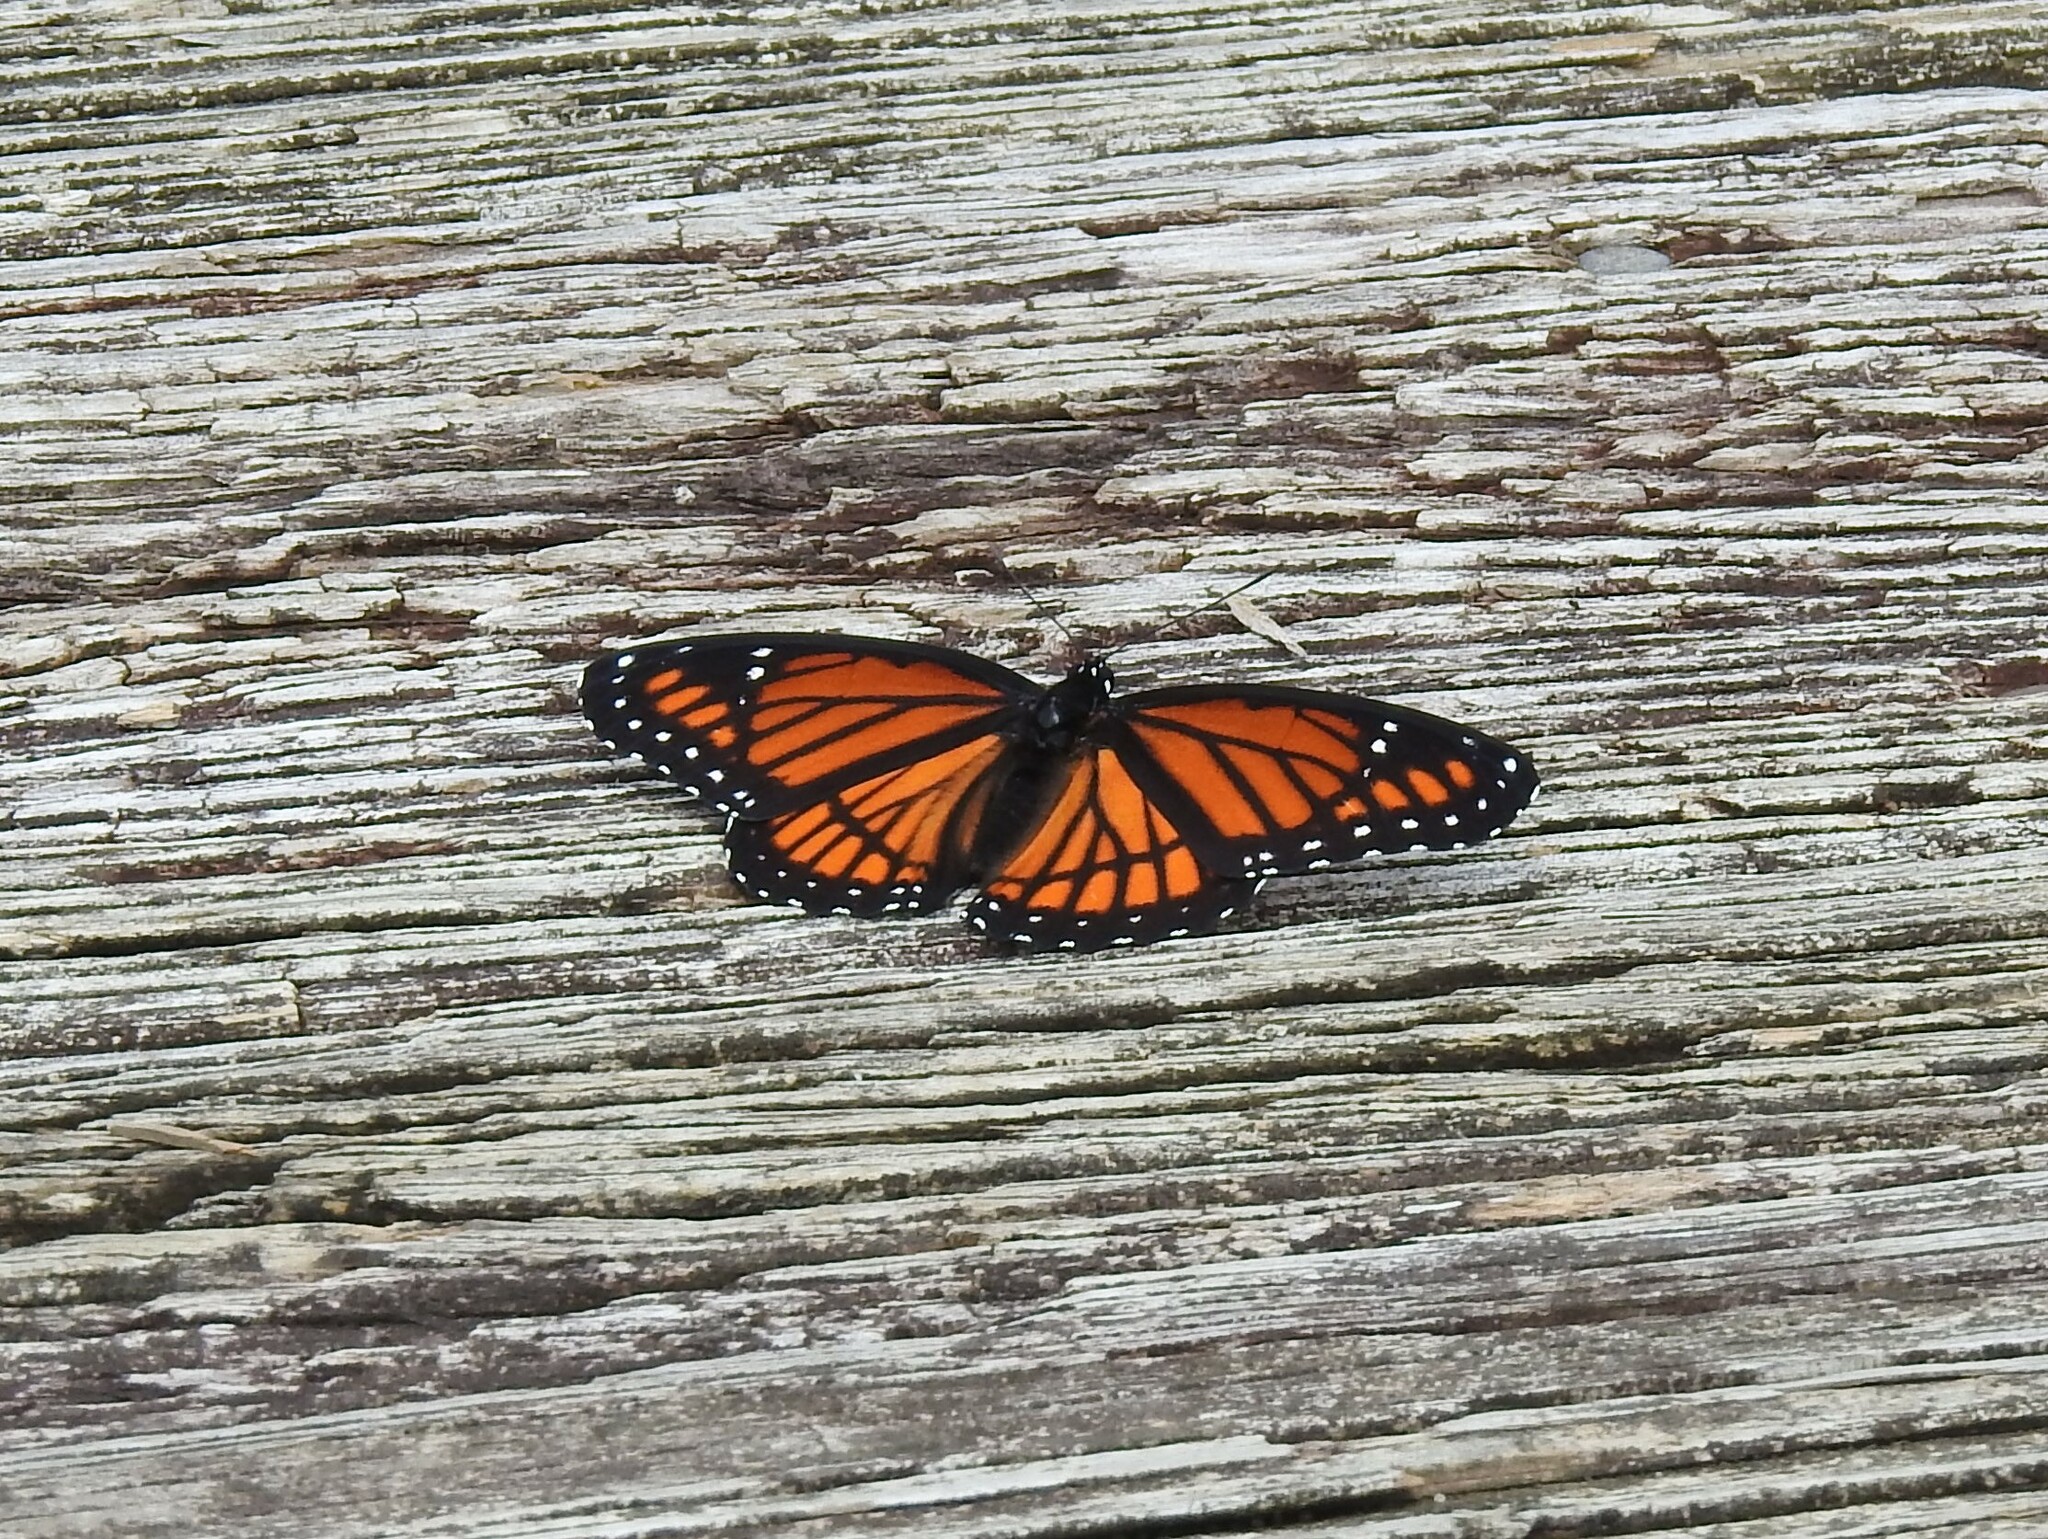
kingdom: Animalia
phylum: Arthropoda
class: Insecta
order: Lepidoptera
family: Nymphalidae
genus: Limenitis
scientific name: Limenitis archippus
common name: Viceroy
